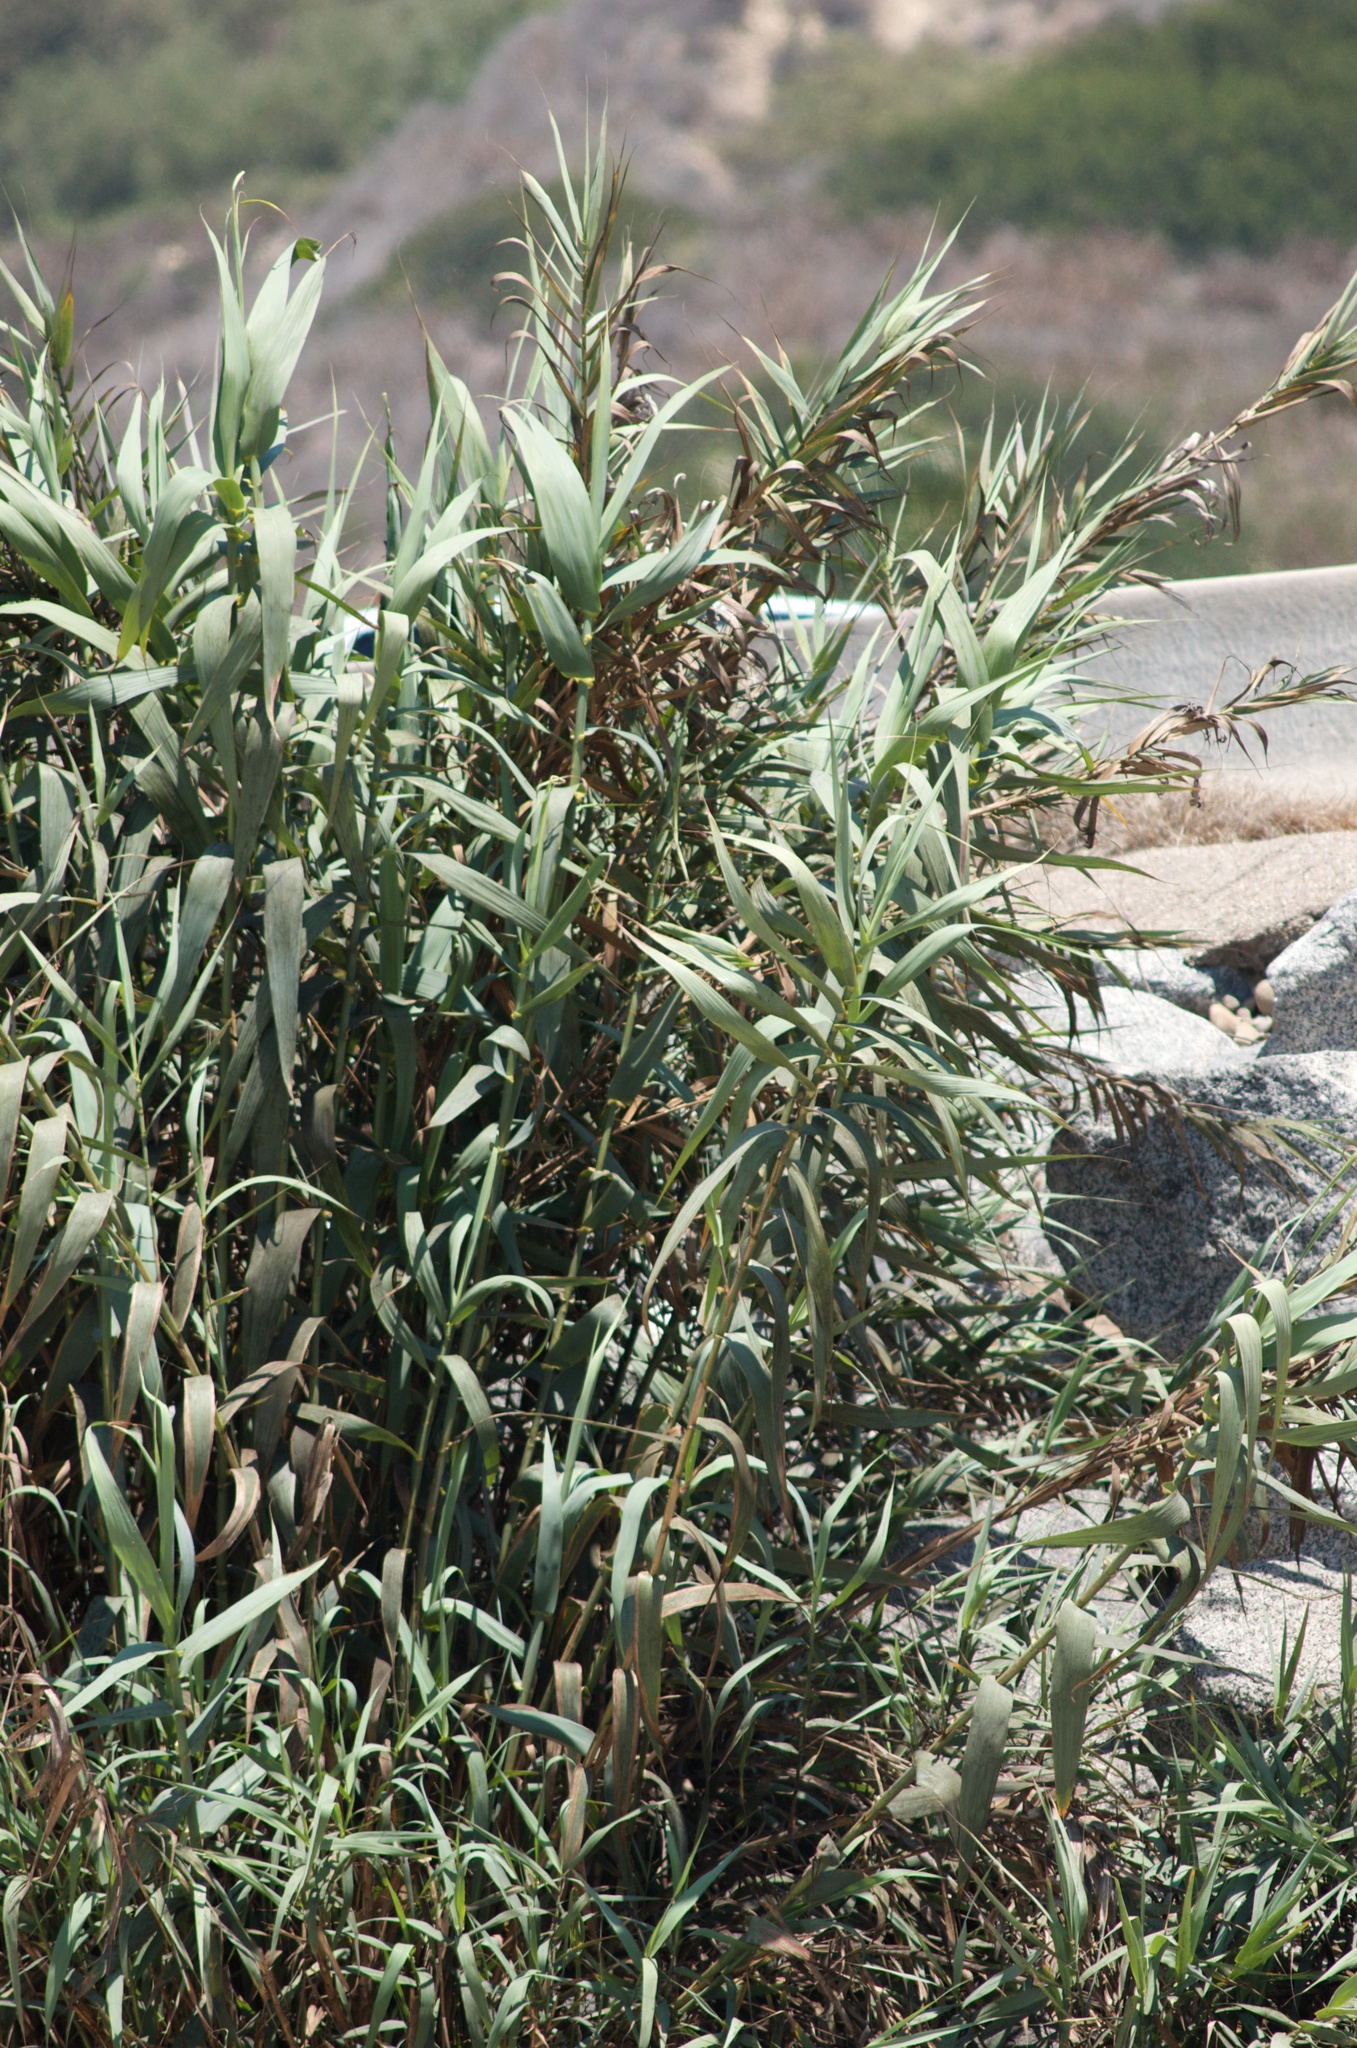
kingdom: Plantae
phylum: Tracheophyta
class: Liliopsida
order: Poales
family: Poaceae
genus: Arundo
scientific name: Arundo donax
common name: Giant reed
